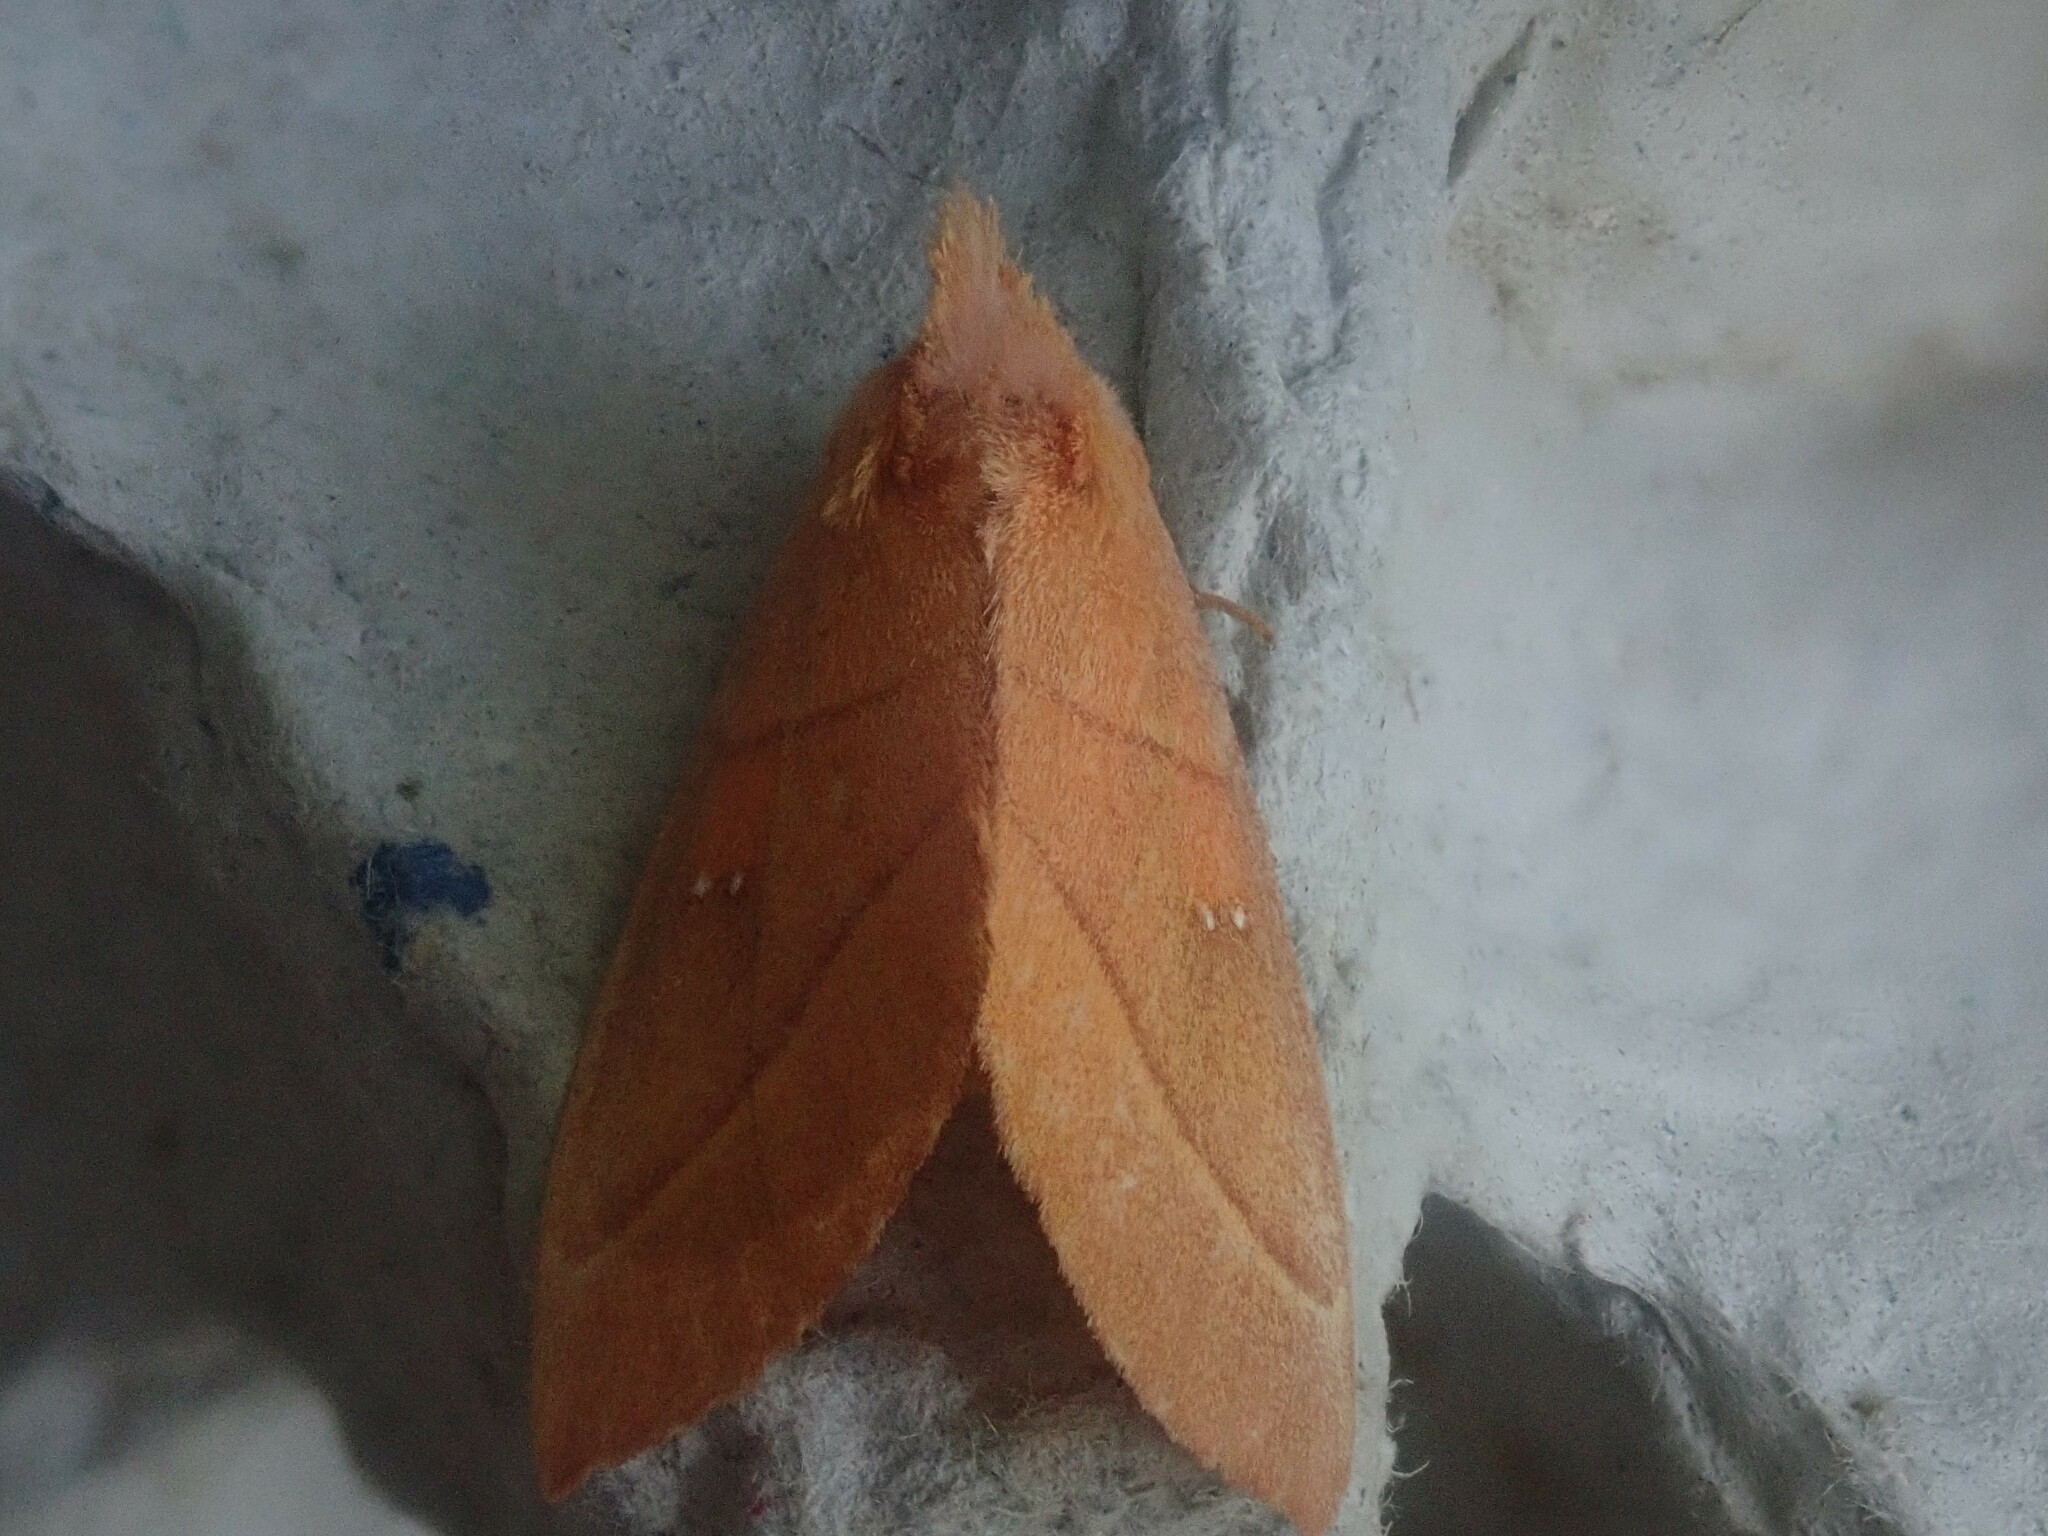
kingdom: Animalia
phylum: Arthropoda
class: Insecta
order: Lepidoptera
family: Notodontidae
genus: Nadata
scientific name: Nadata gibbosa
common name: White-dotted prominent
